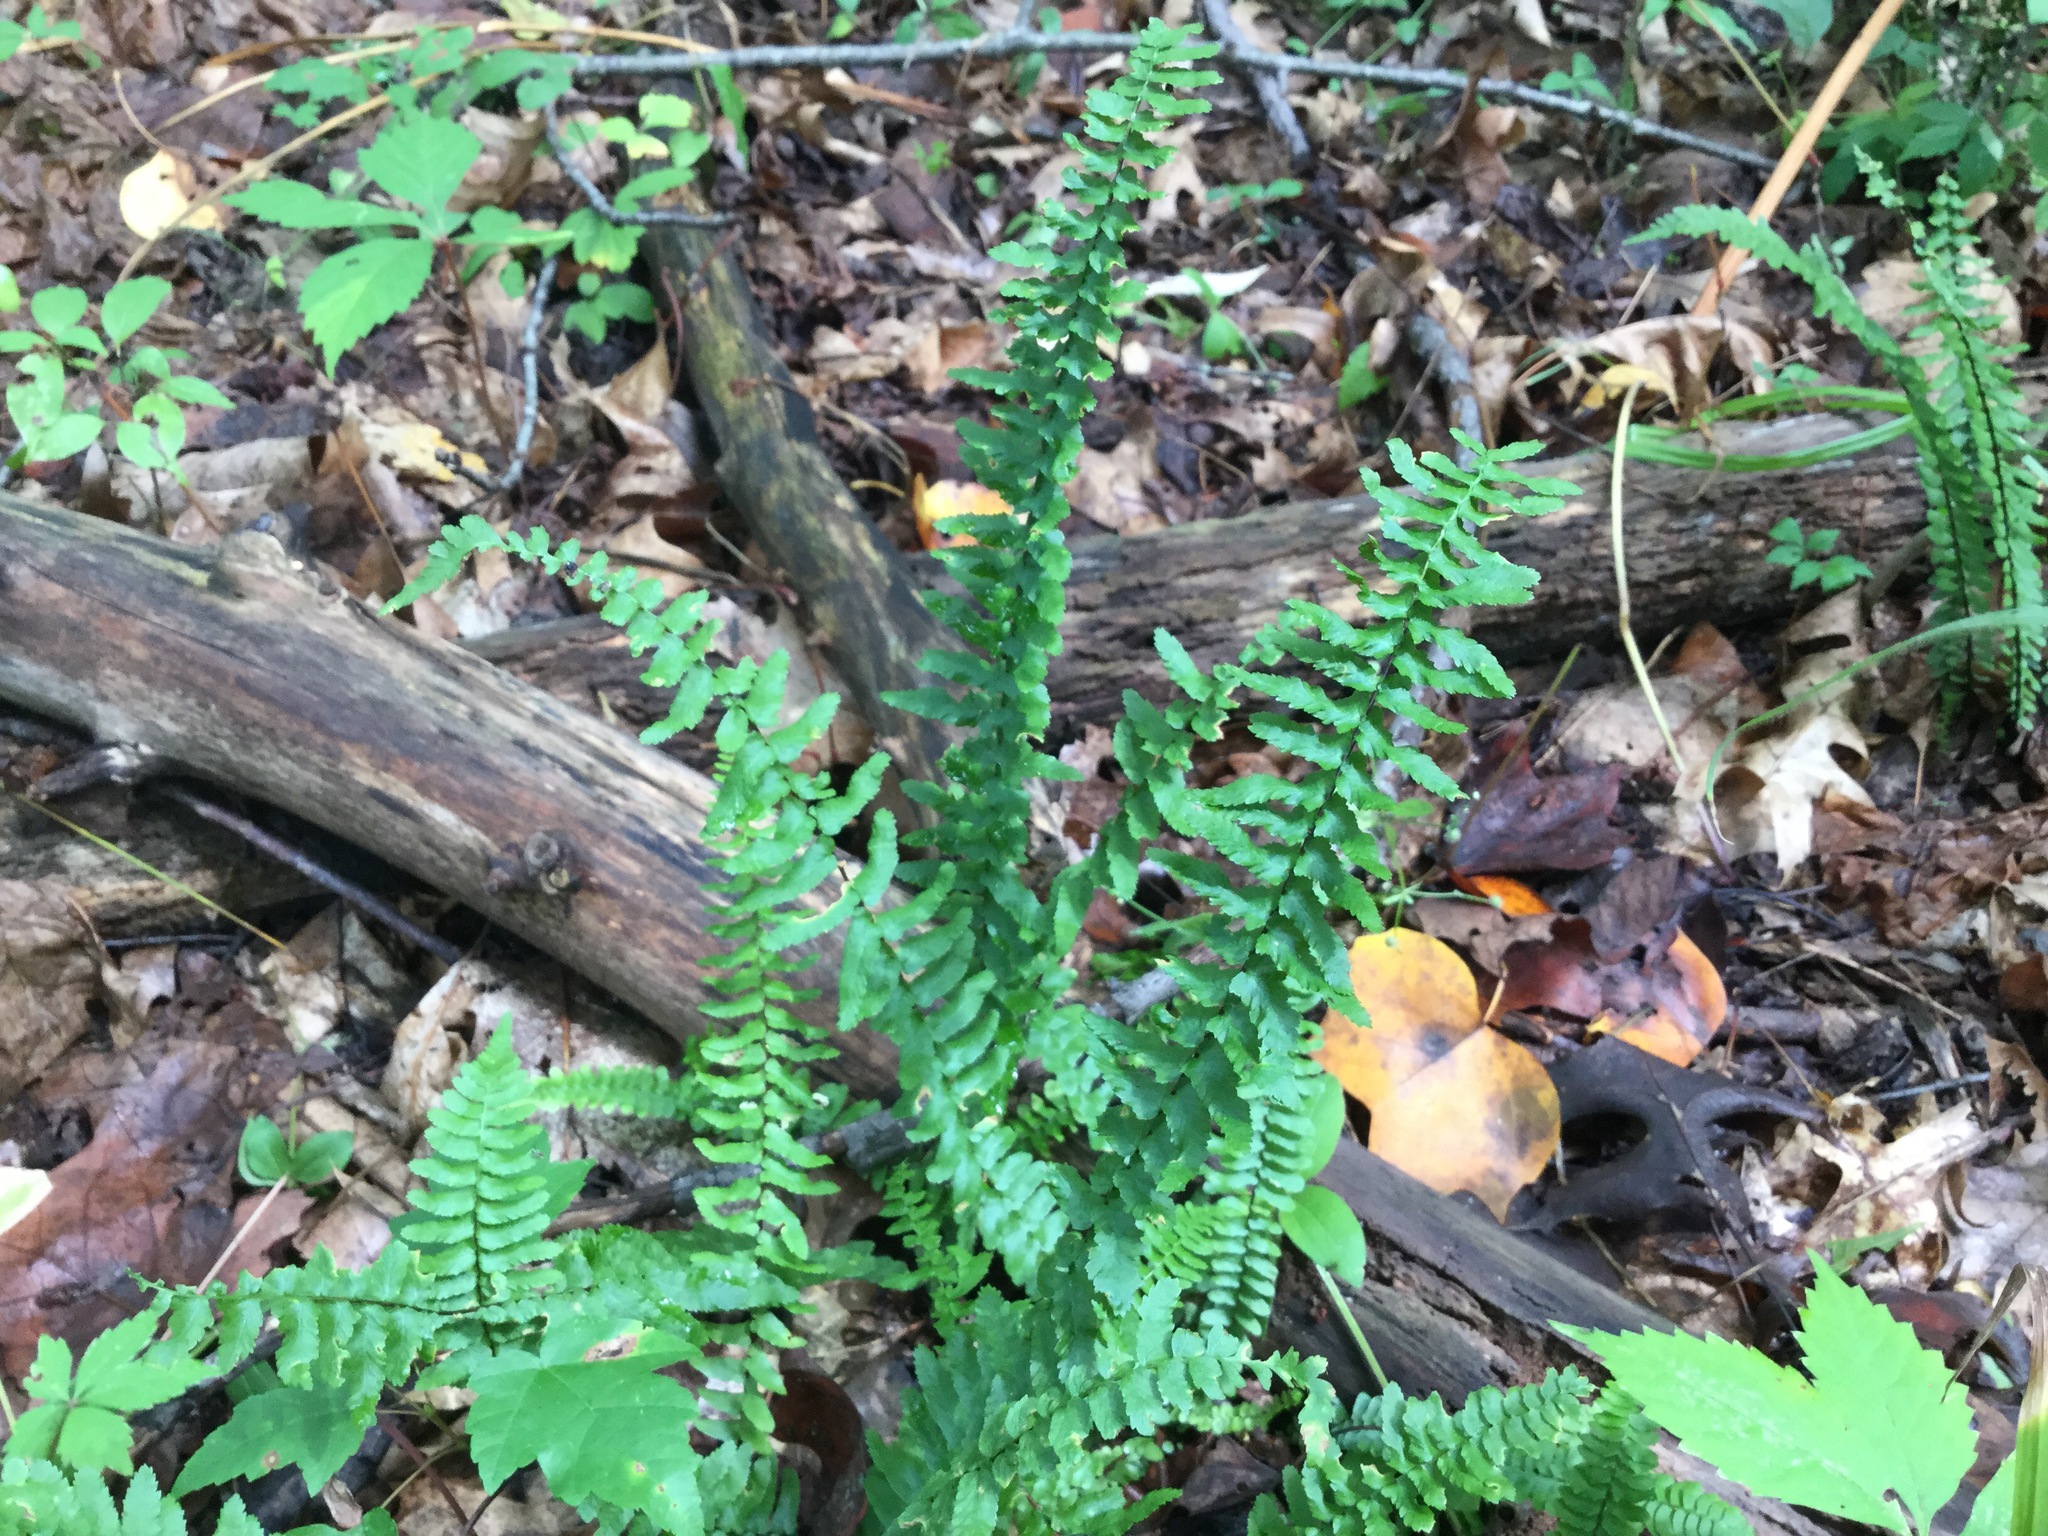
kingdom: Plantae
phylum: Tracheophyta
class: Polypodiopsida
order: Polypodiales
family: Aspleniaceae
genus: Asplenium
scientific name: Asplenium platyneuron
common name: Ebony spleenwort
